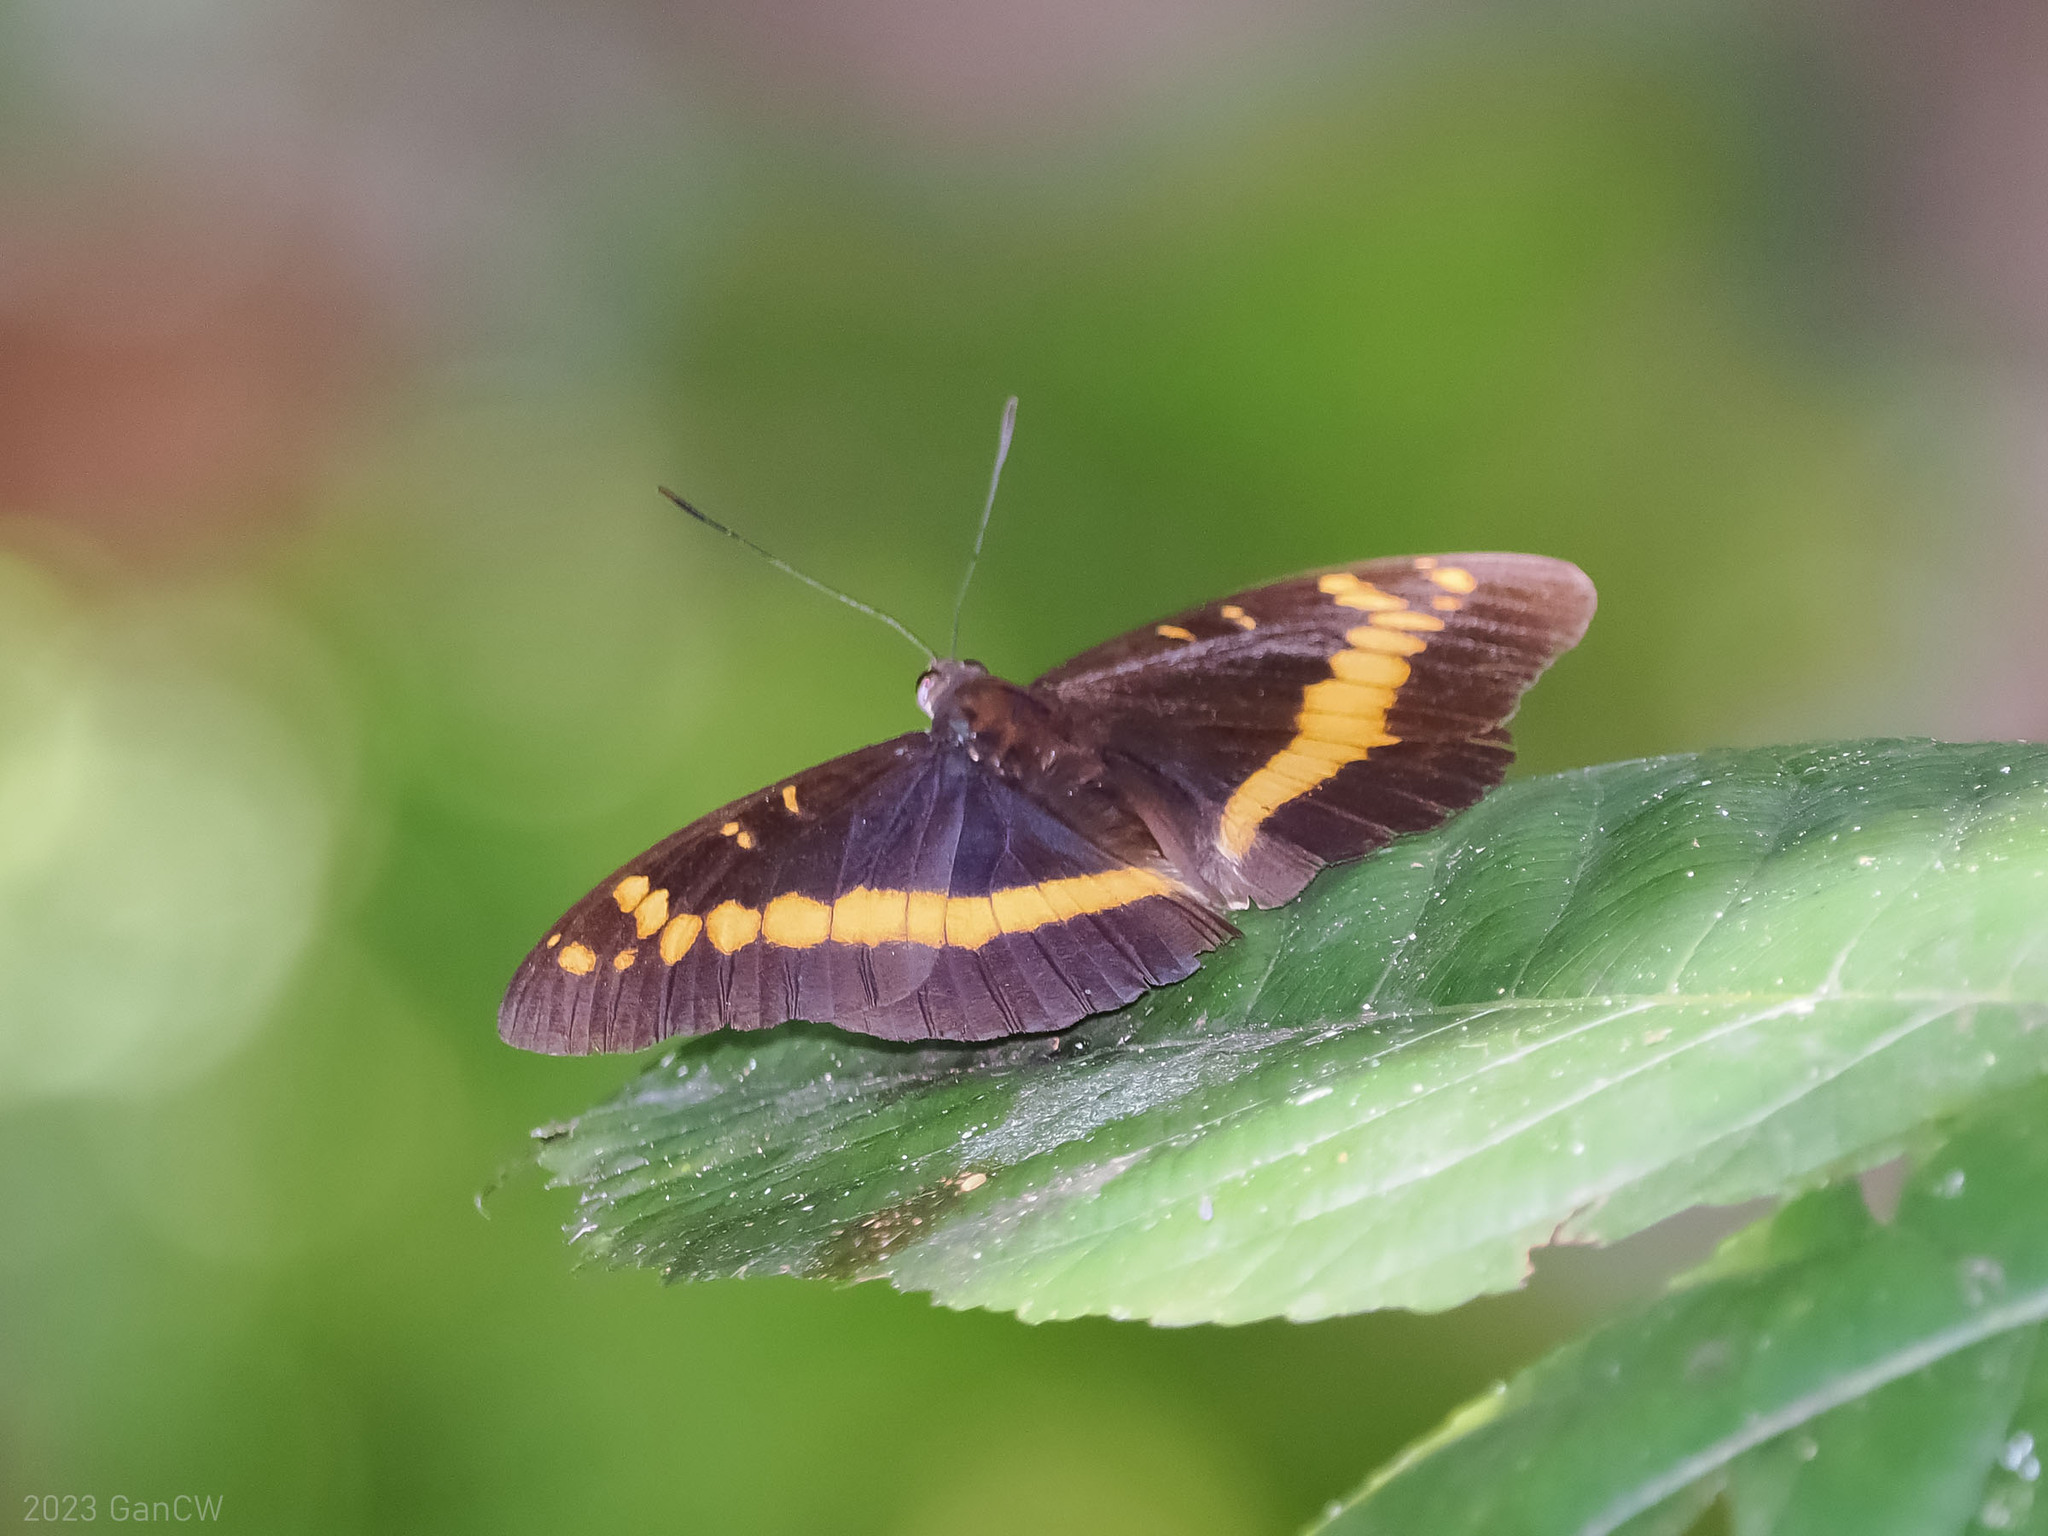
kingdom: Animalia
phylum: Arthropoda
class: Insecta
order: Lepidoptera
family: Nymphalidae
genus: Lexias
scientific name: Lexias aeropa
